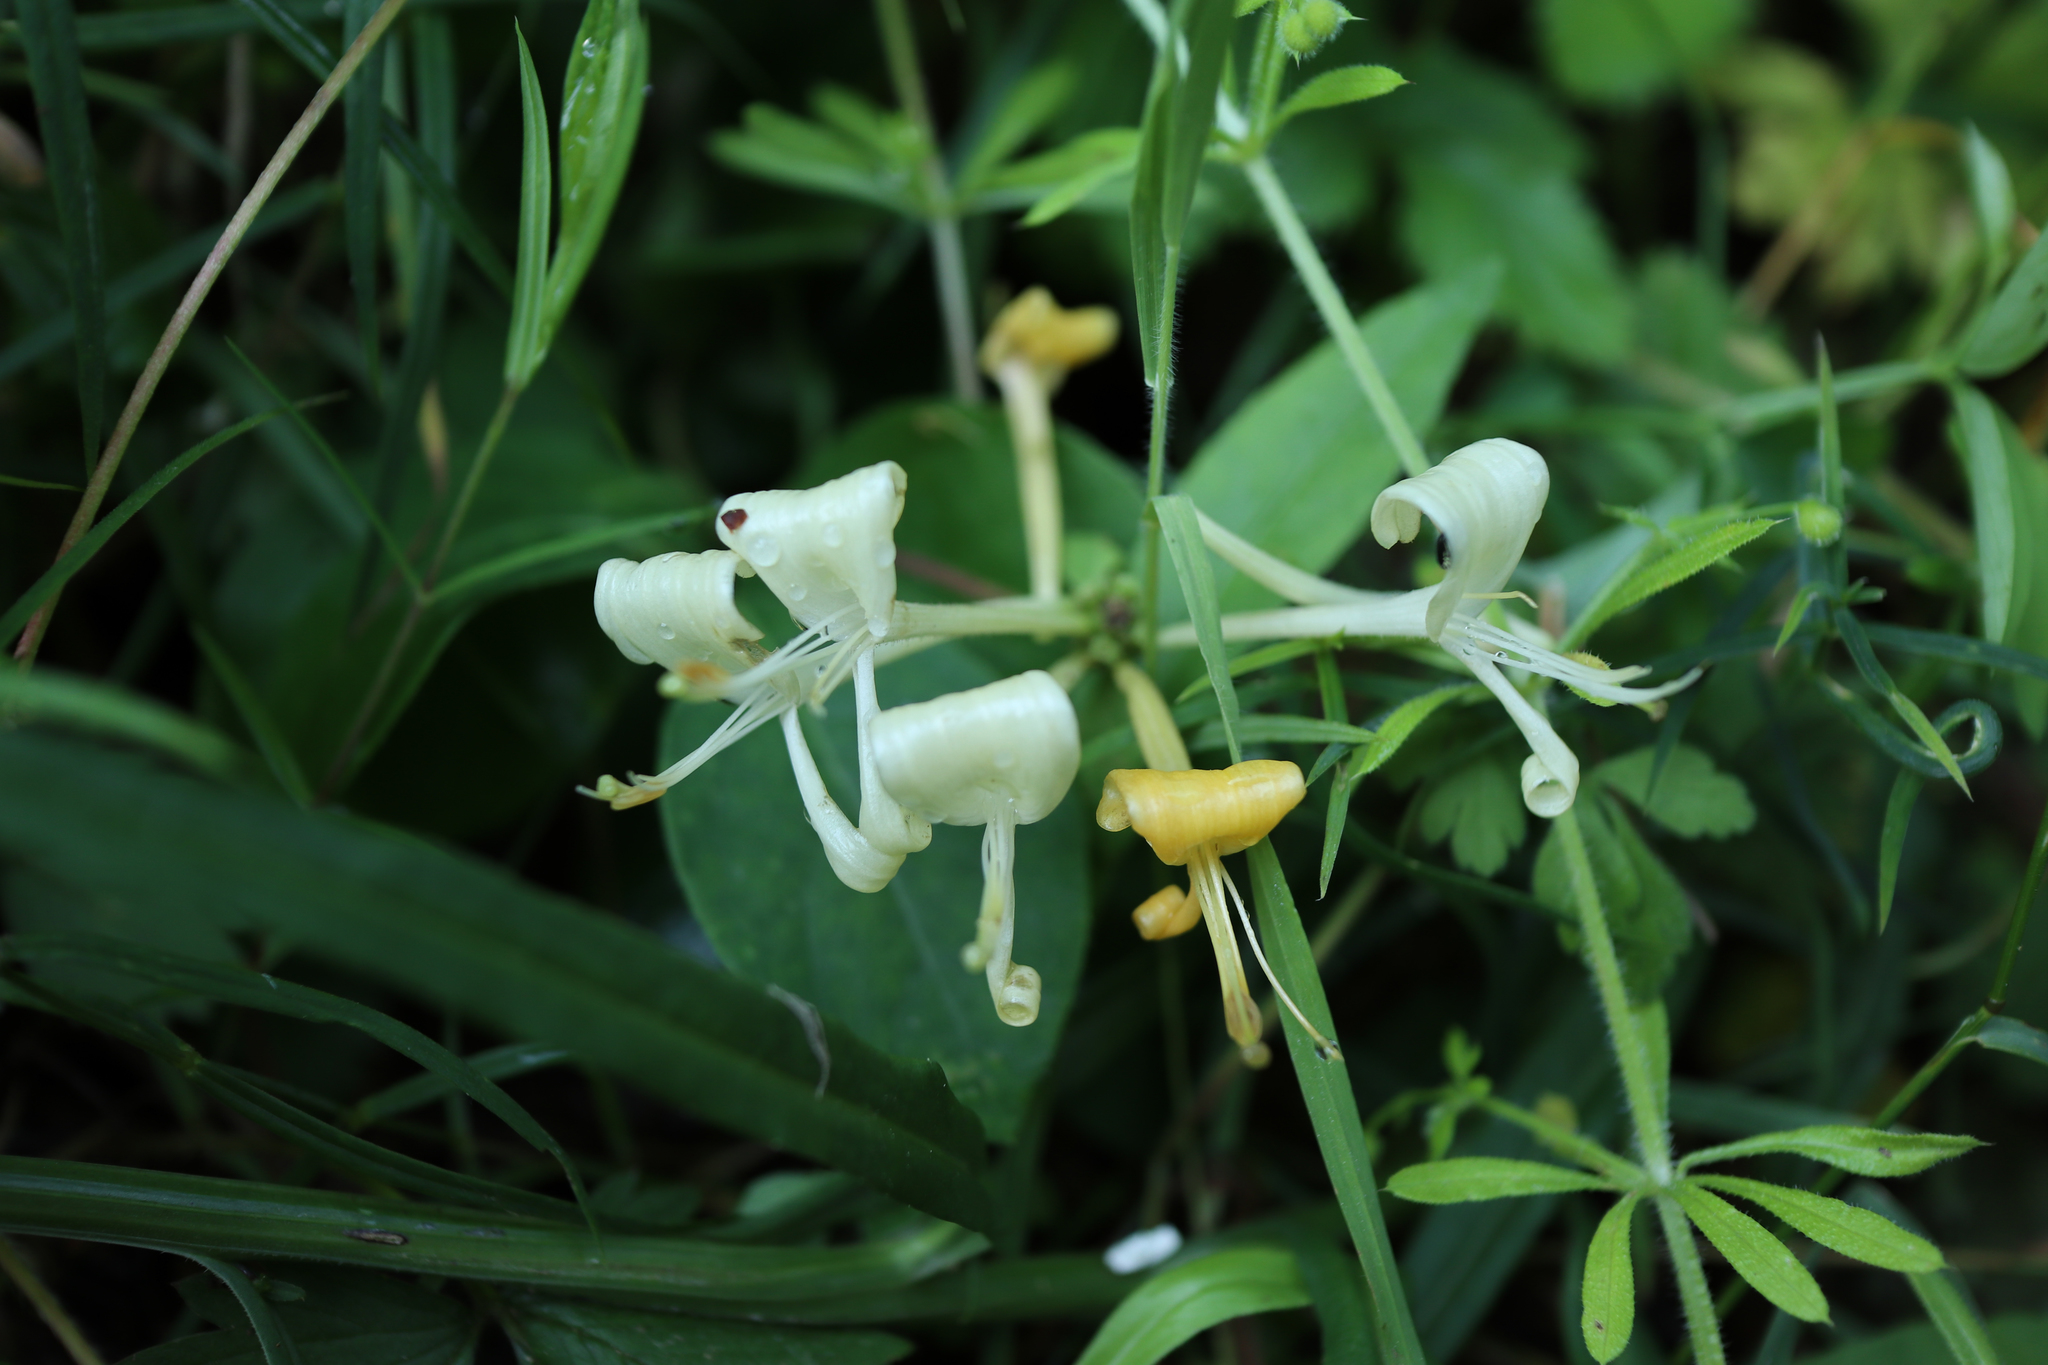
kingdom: Plantae
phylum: Tracheophyta
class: Magnoliopsida
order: Dipsacales
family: Caprifoliaceae
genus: Lonicera
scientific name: Lonicera periclymenum
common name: European honeysuckle
